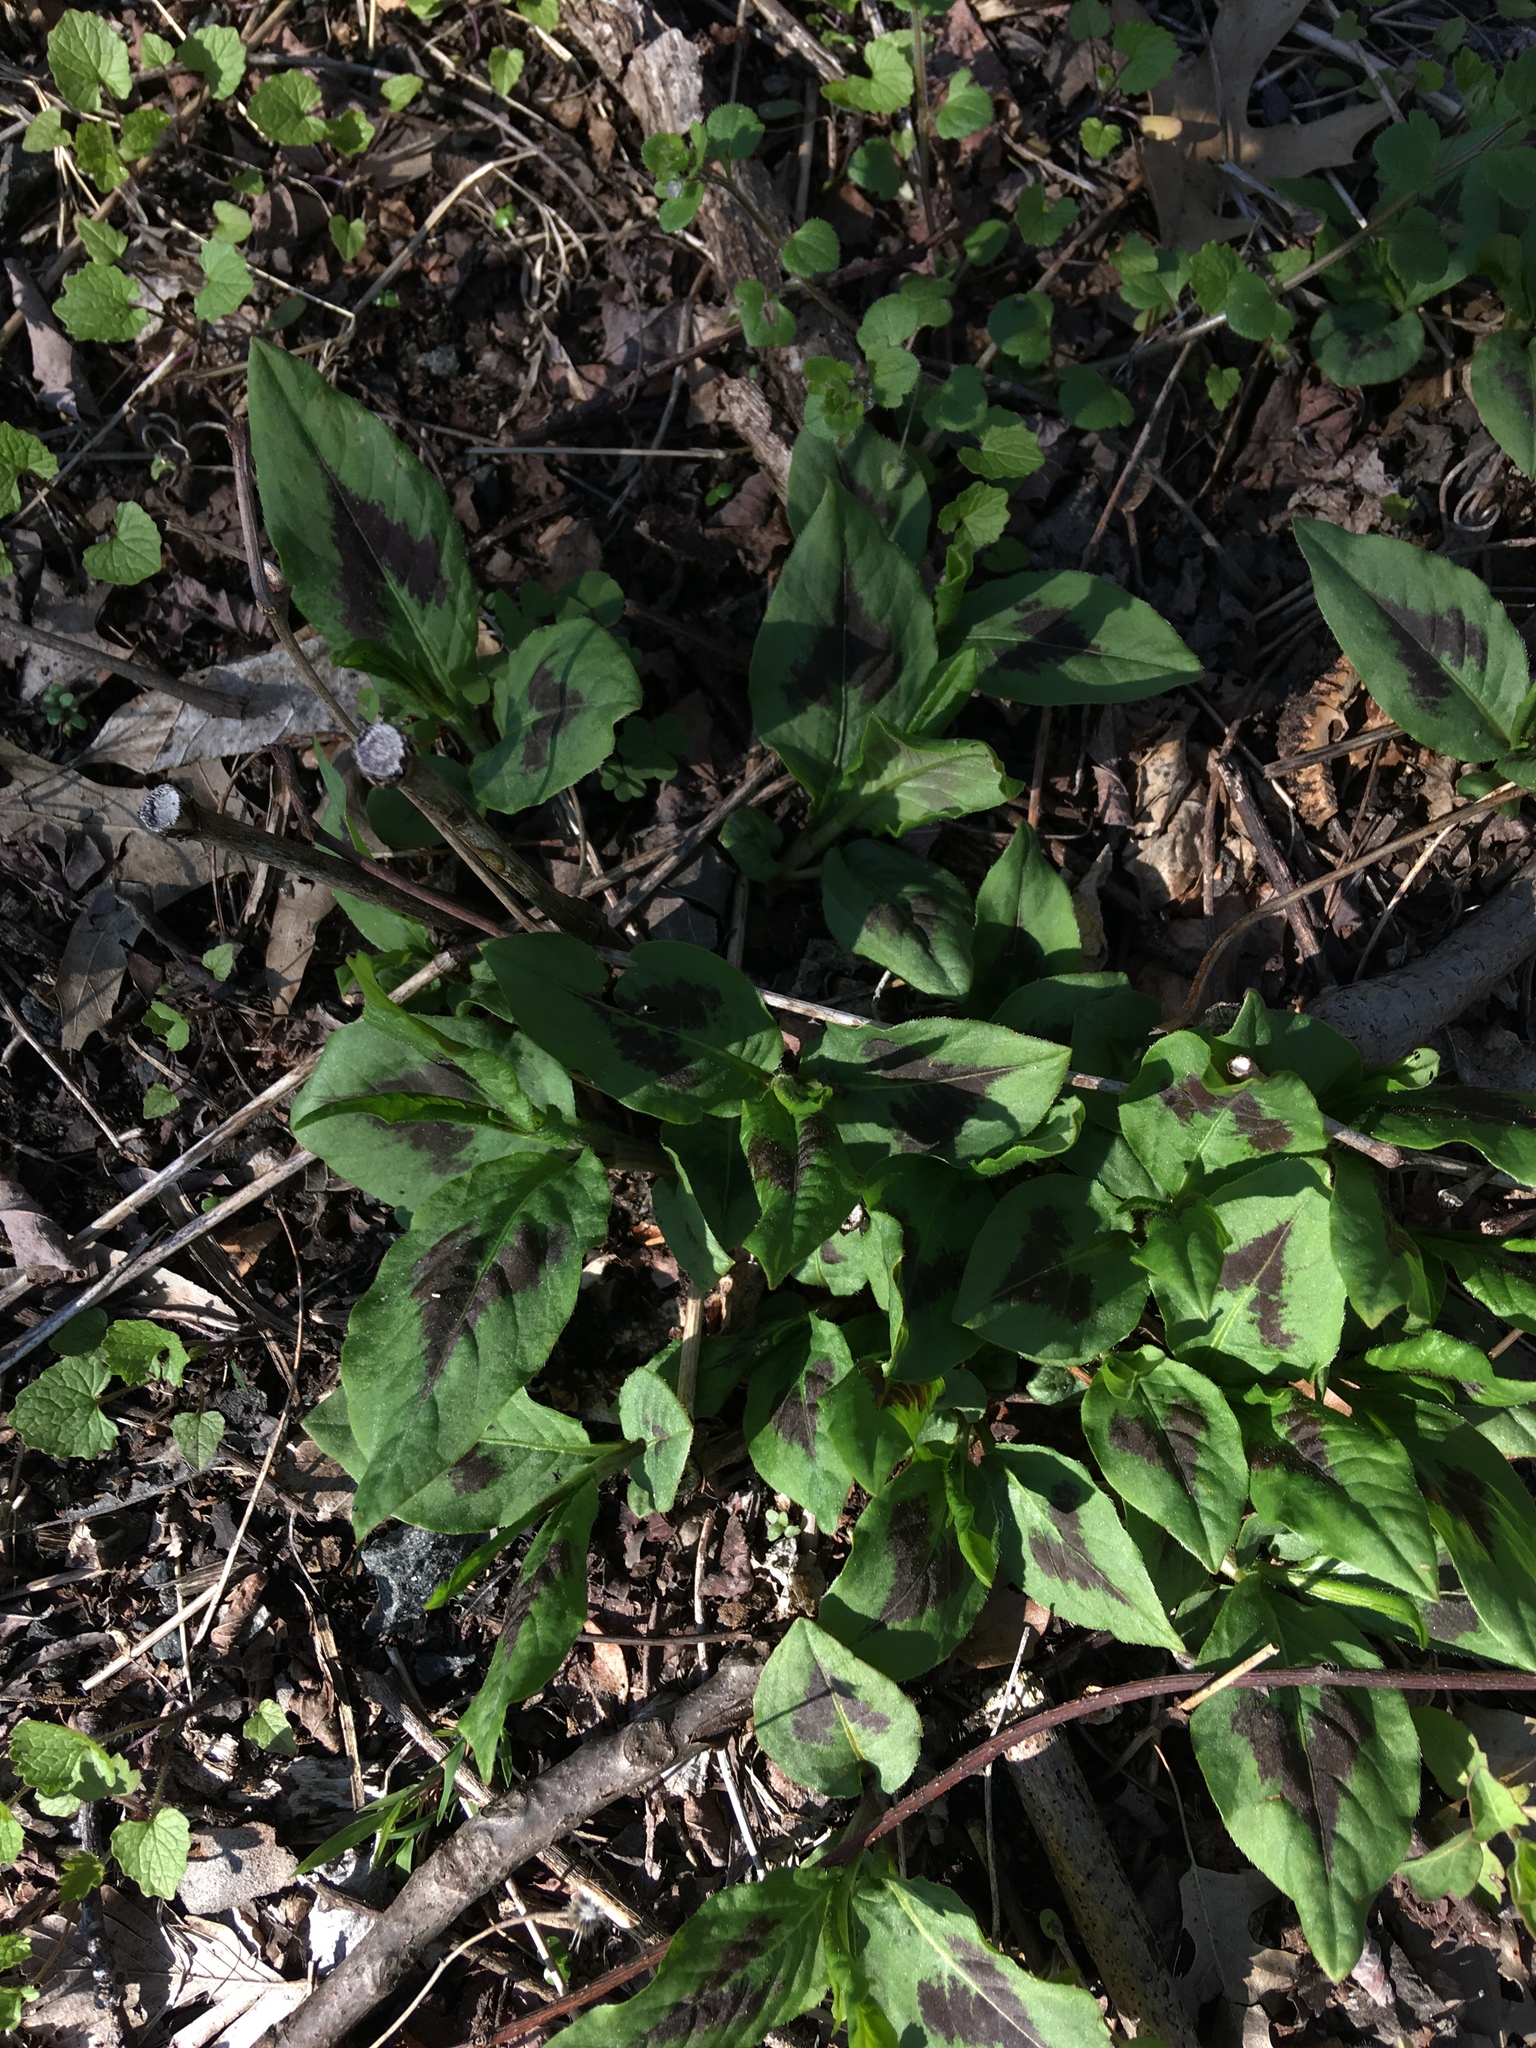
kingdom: Plantae
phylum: Tracheophyta
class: Magnoliopsida
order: Caryophyllales
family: Polygonaceae
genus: Persicaria
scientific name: Persicaria virginiana
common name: Jumpseed
